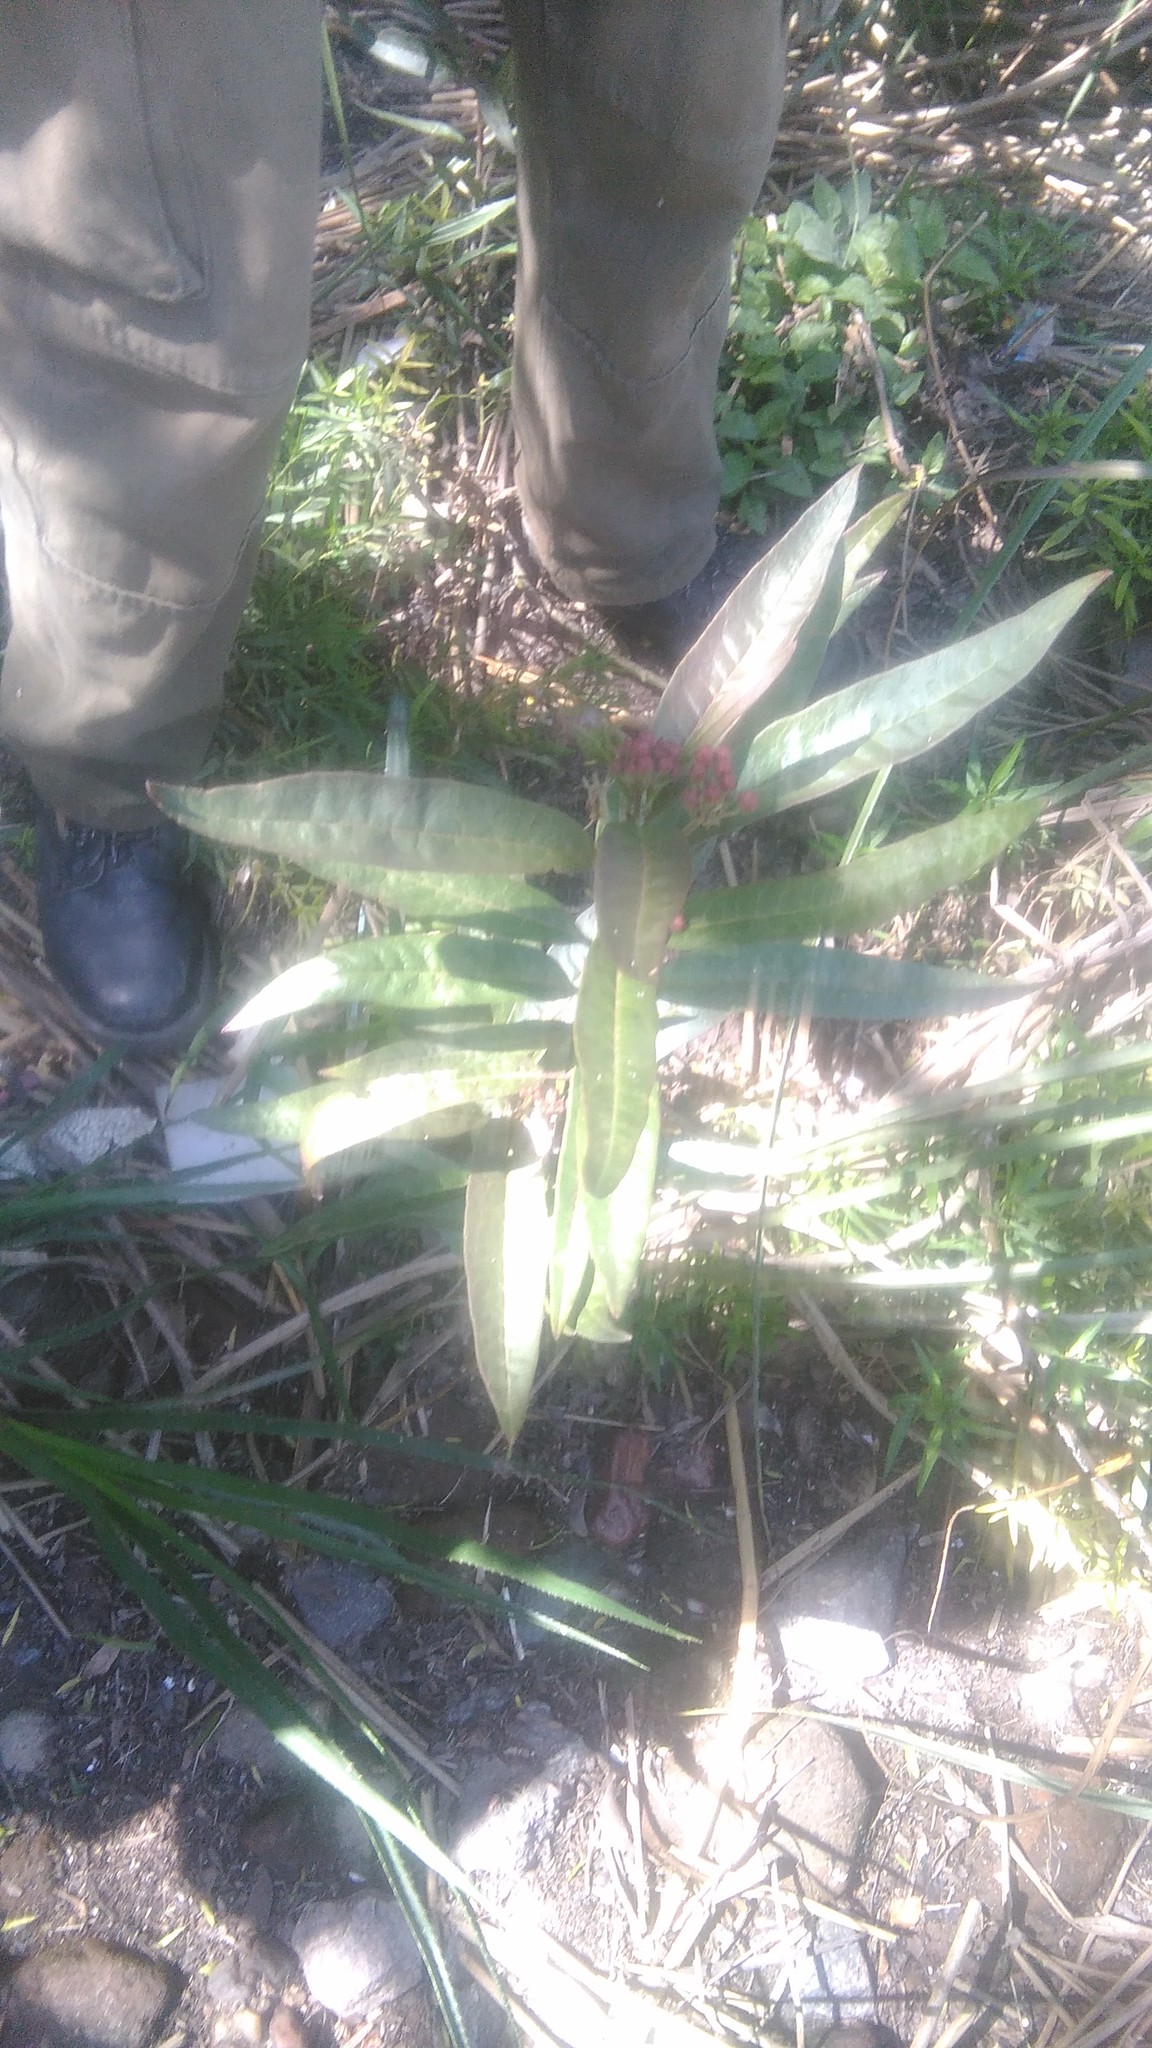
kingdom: Plantae
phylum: Tracheophyta
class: Magnoliopsida
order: Gentianales
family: Apocynaceae
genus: Asclepias
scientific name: Asclepias curassavica
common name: Bloodflower
